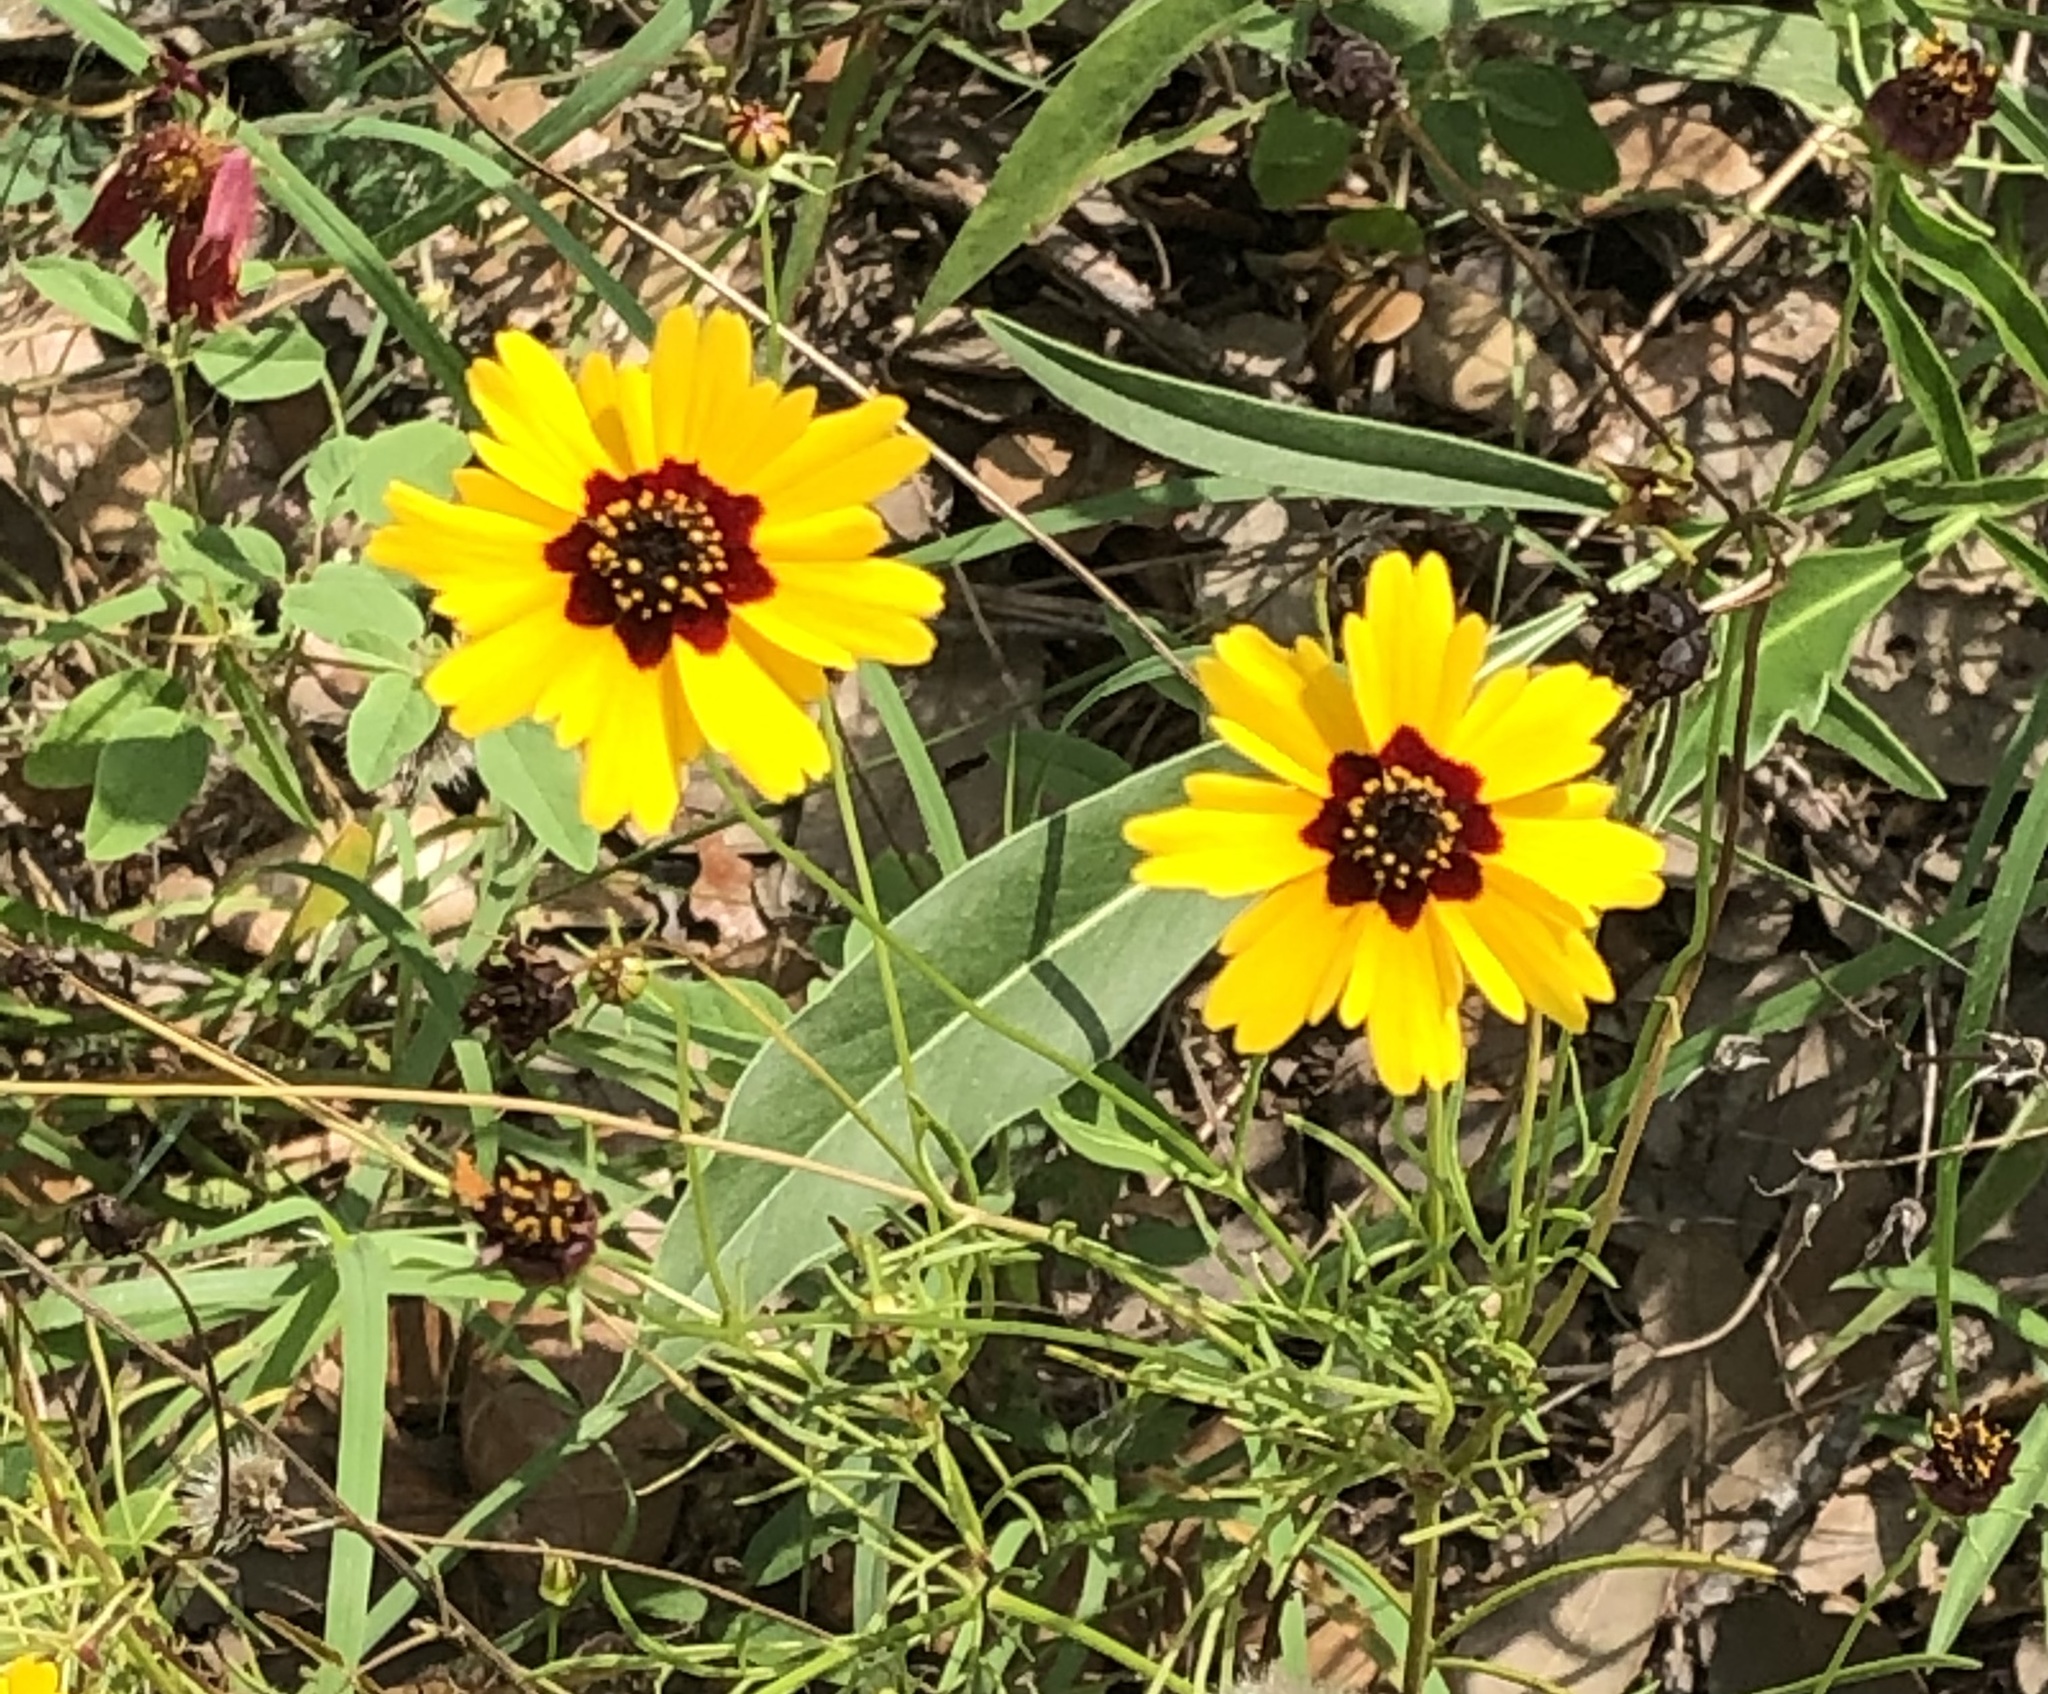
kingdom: Plantae
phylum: Tracheophyta
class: Magnoliopsida
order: Asterales
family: Asteraceae
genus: Coreopsis
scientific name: Coreopsis basalis
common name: Golden-mane coreopsis
